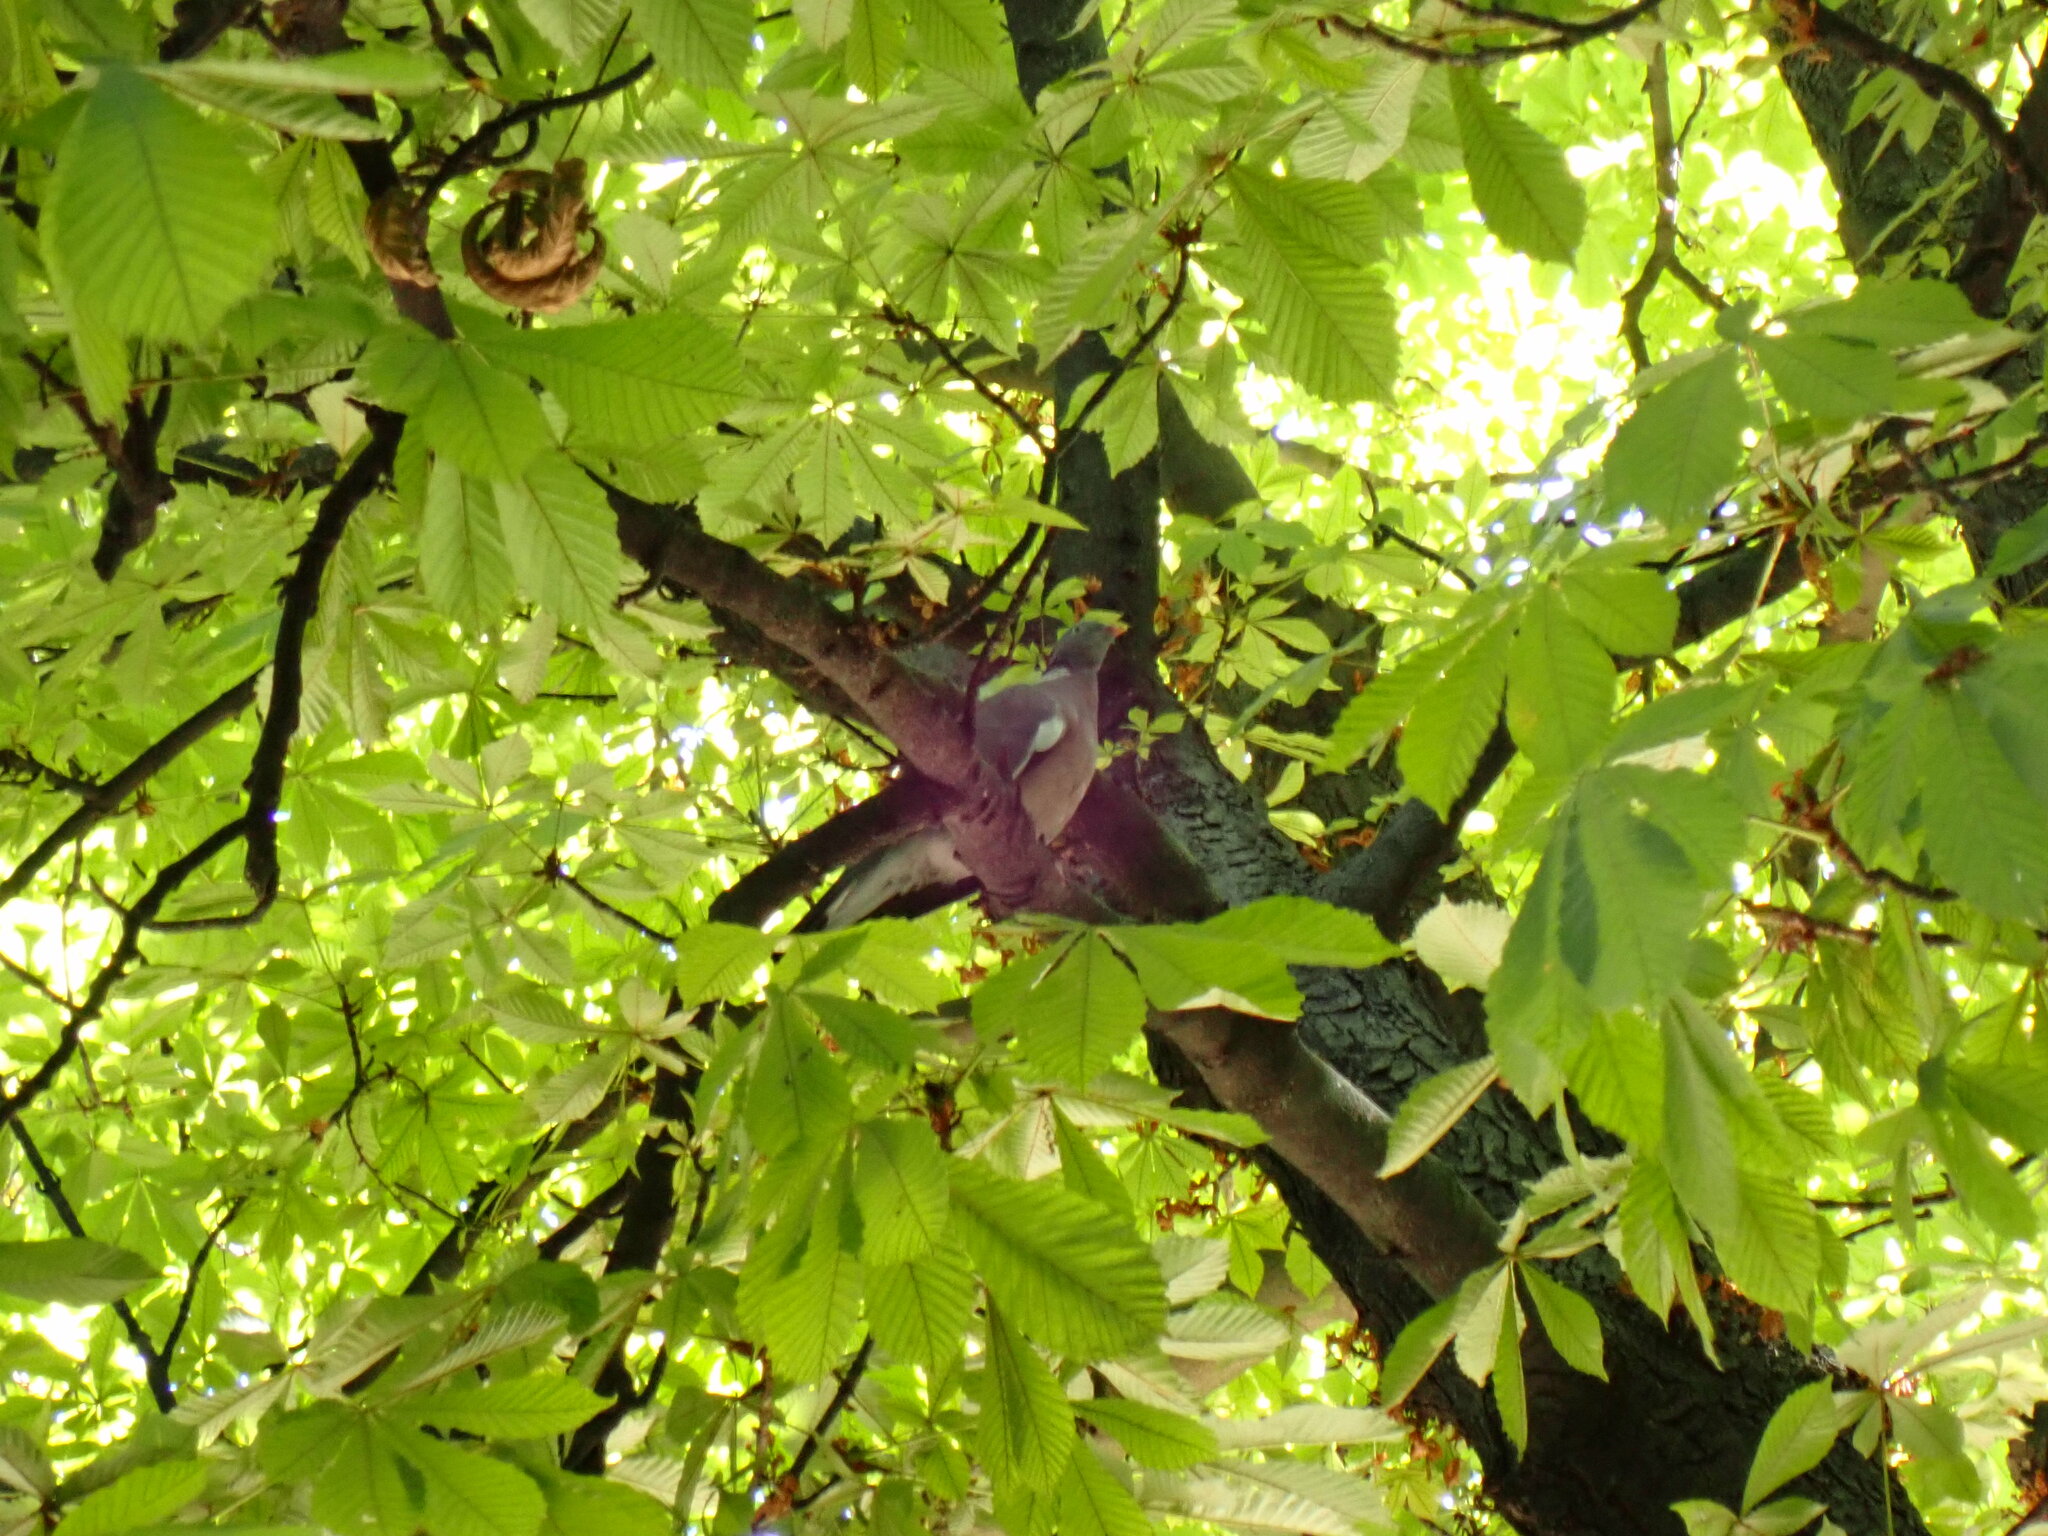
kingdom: Animalia
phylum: Chordata
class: Aves
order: Columbiformes
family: Columbidae
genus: Columba
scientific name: Columba palumbus
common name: Common wood pigeon
